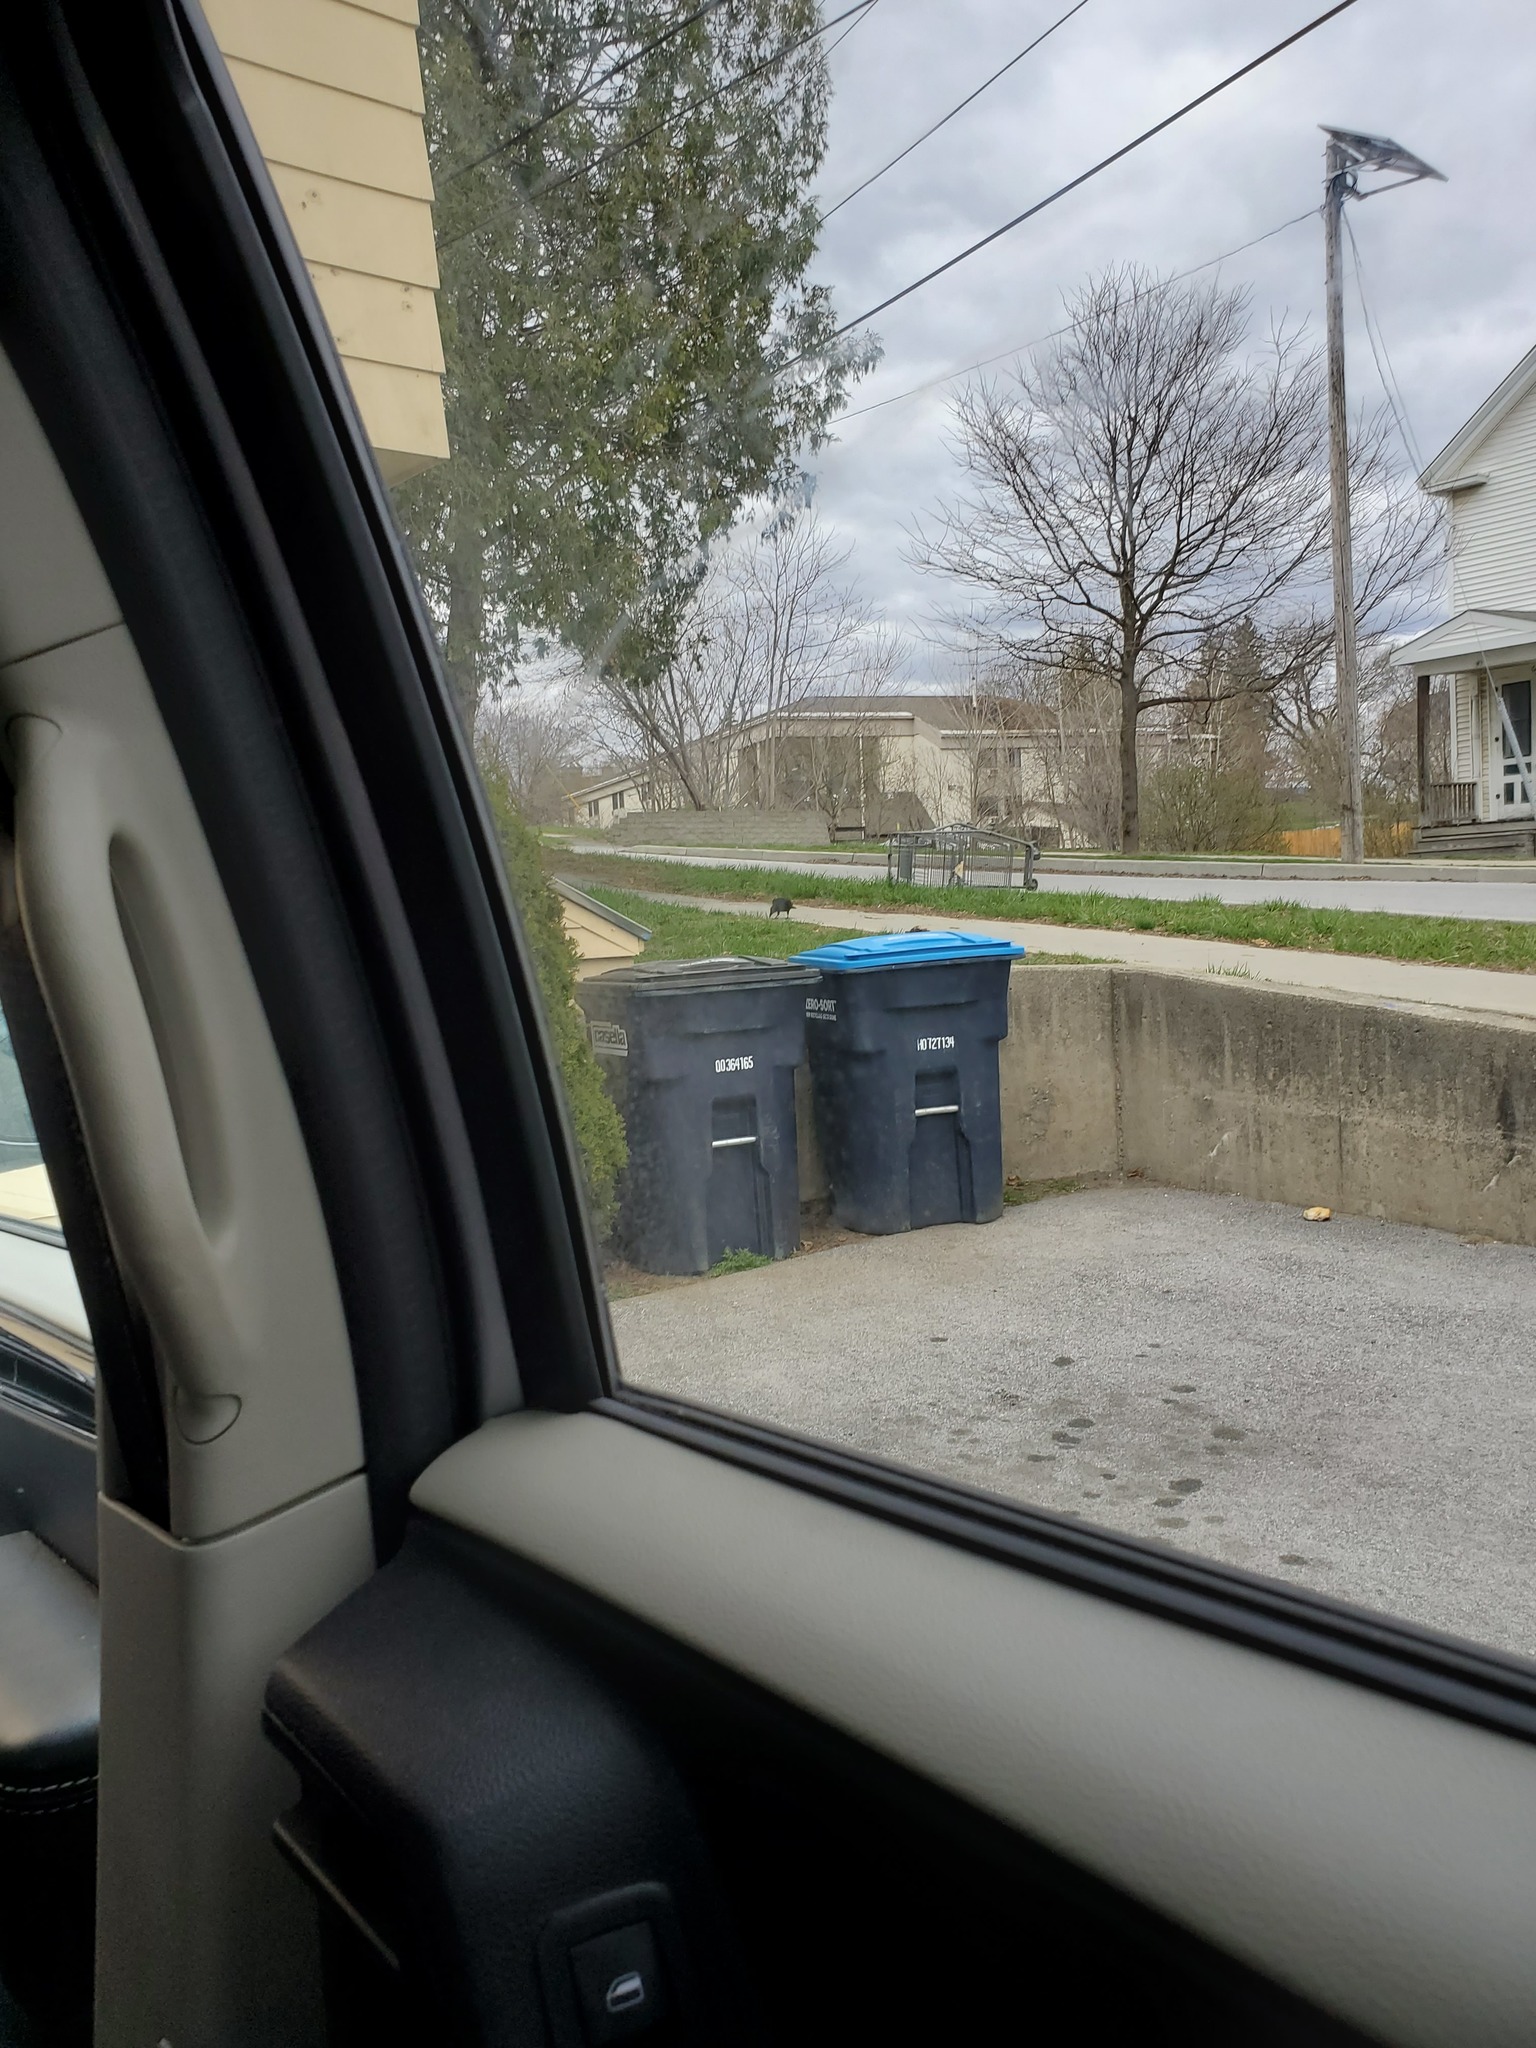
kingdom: Animalia
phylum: Chordata
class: Aves
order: Passeriformes
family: Corvidae
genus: Corvus
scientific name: Corvus brachyrhynchos
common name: American crow
